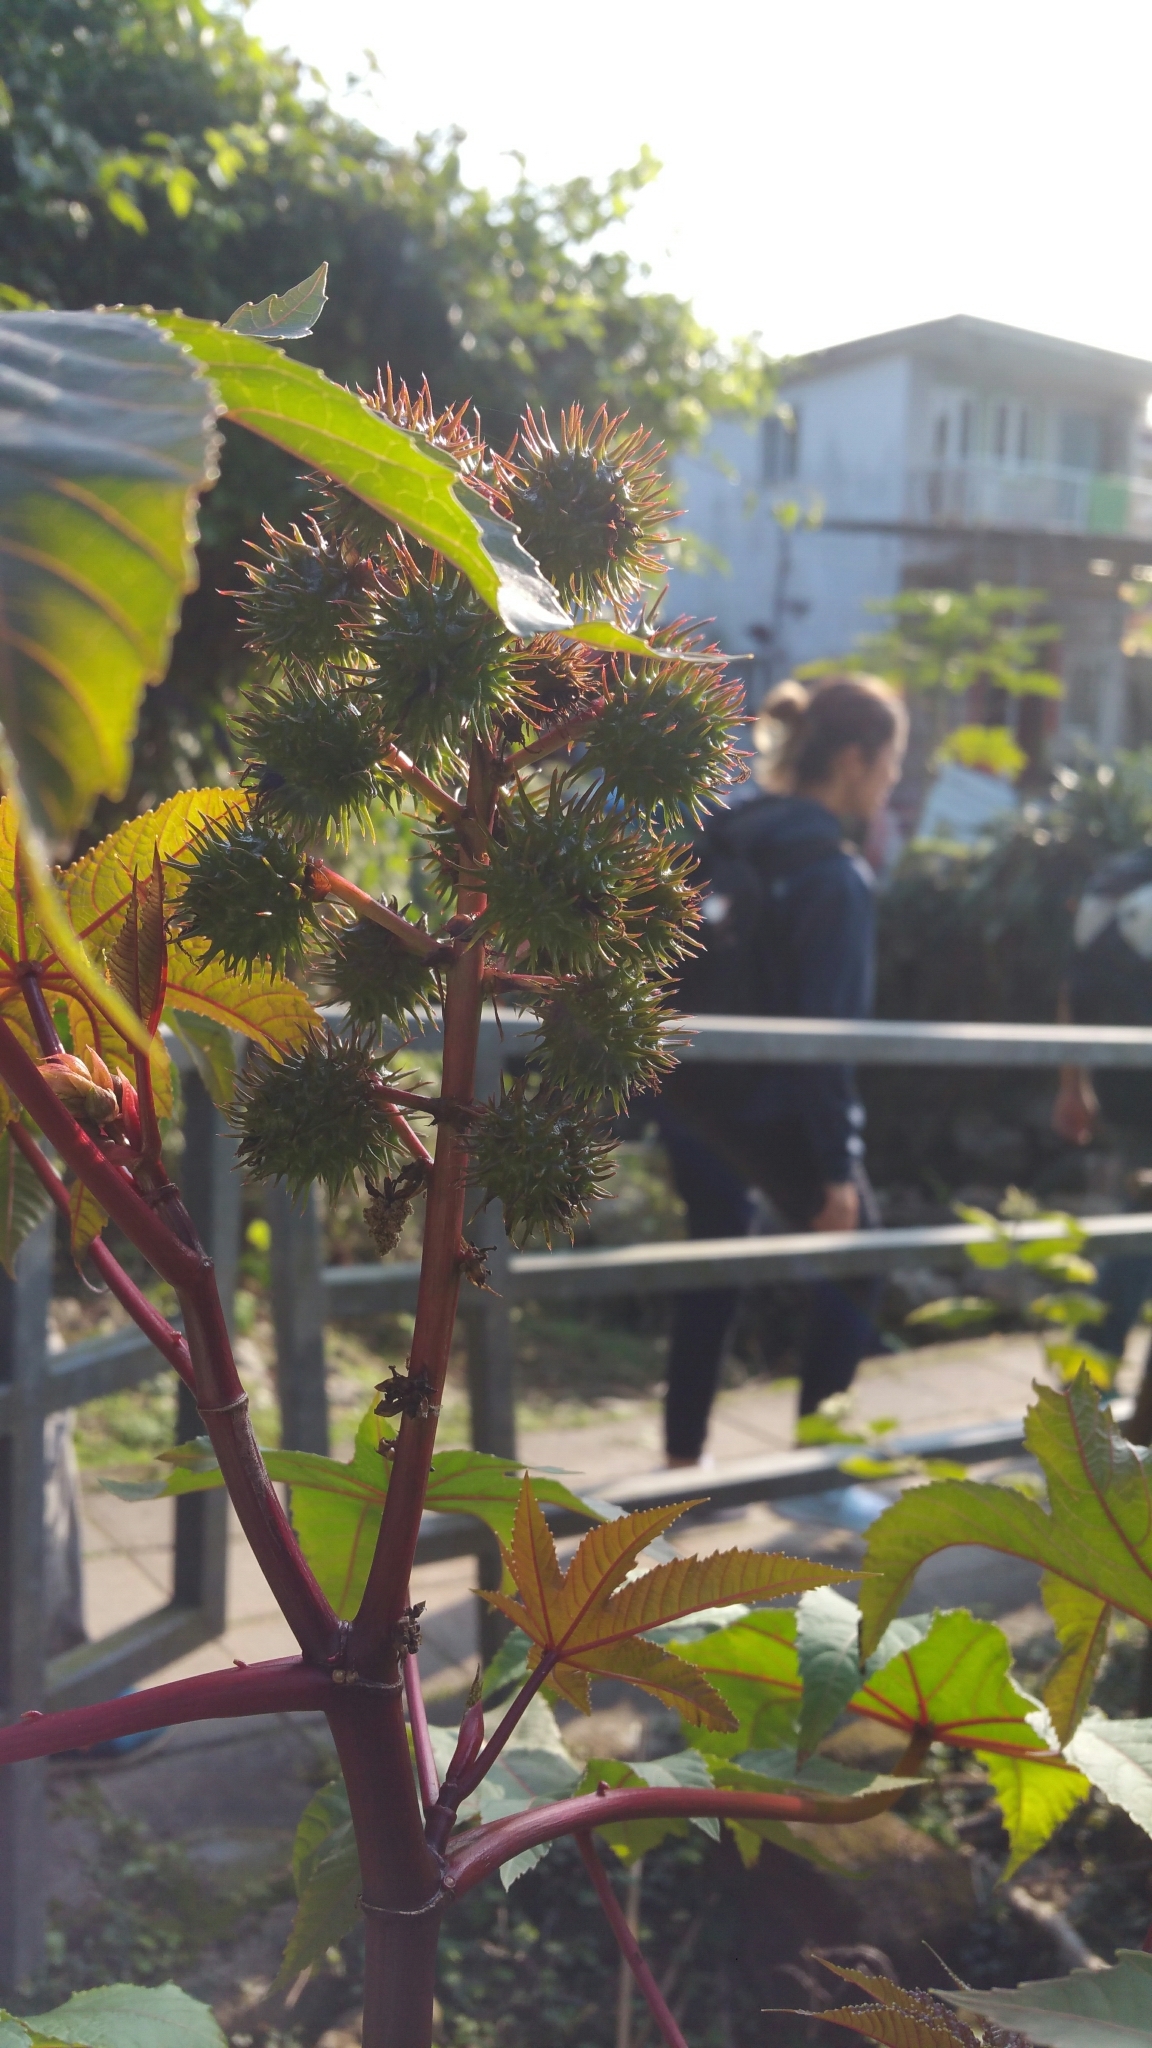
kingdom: Plantae
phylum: Tracheophyta
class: Magnoliopsida
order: Malpighiales
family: Euphorbiaceae
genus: Ricinus
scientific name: Ricinus communis
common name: Castor-oil-plant
